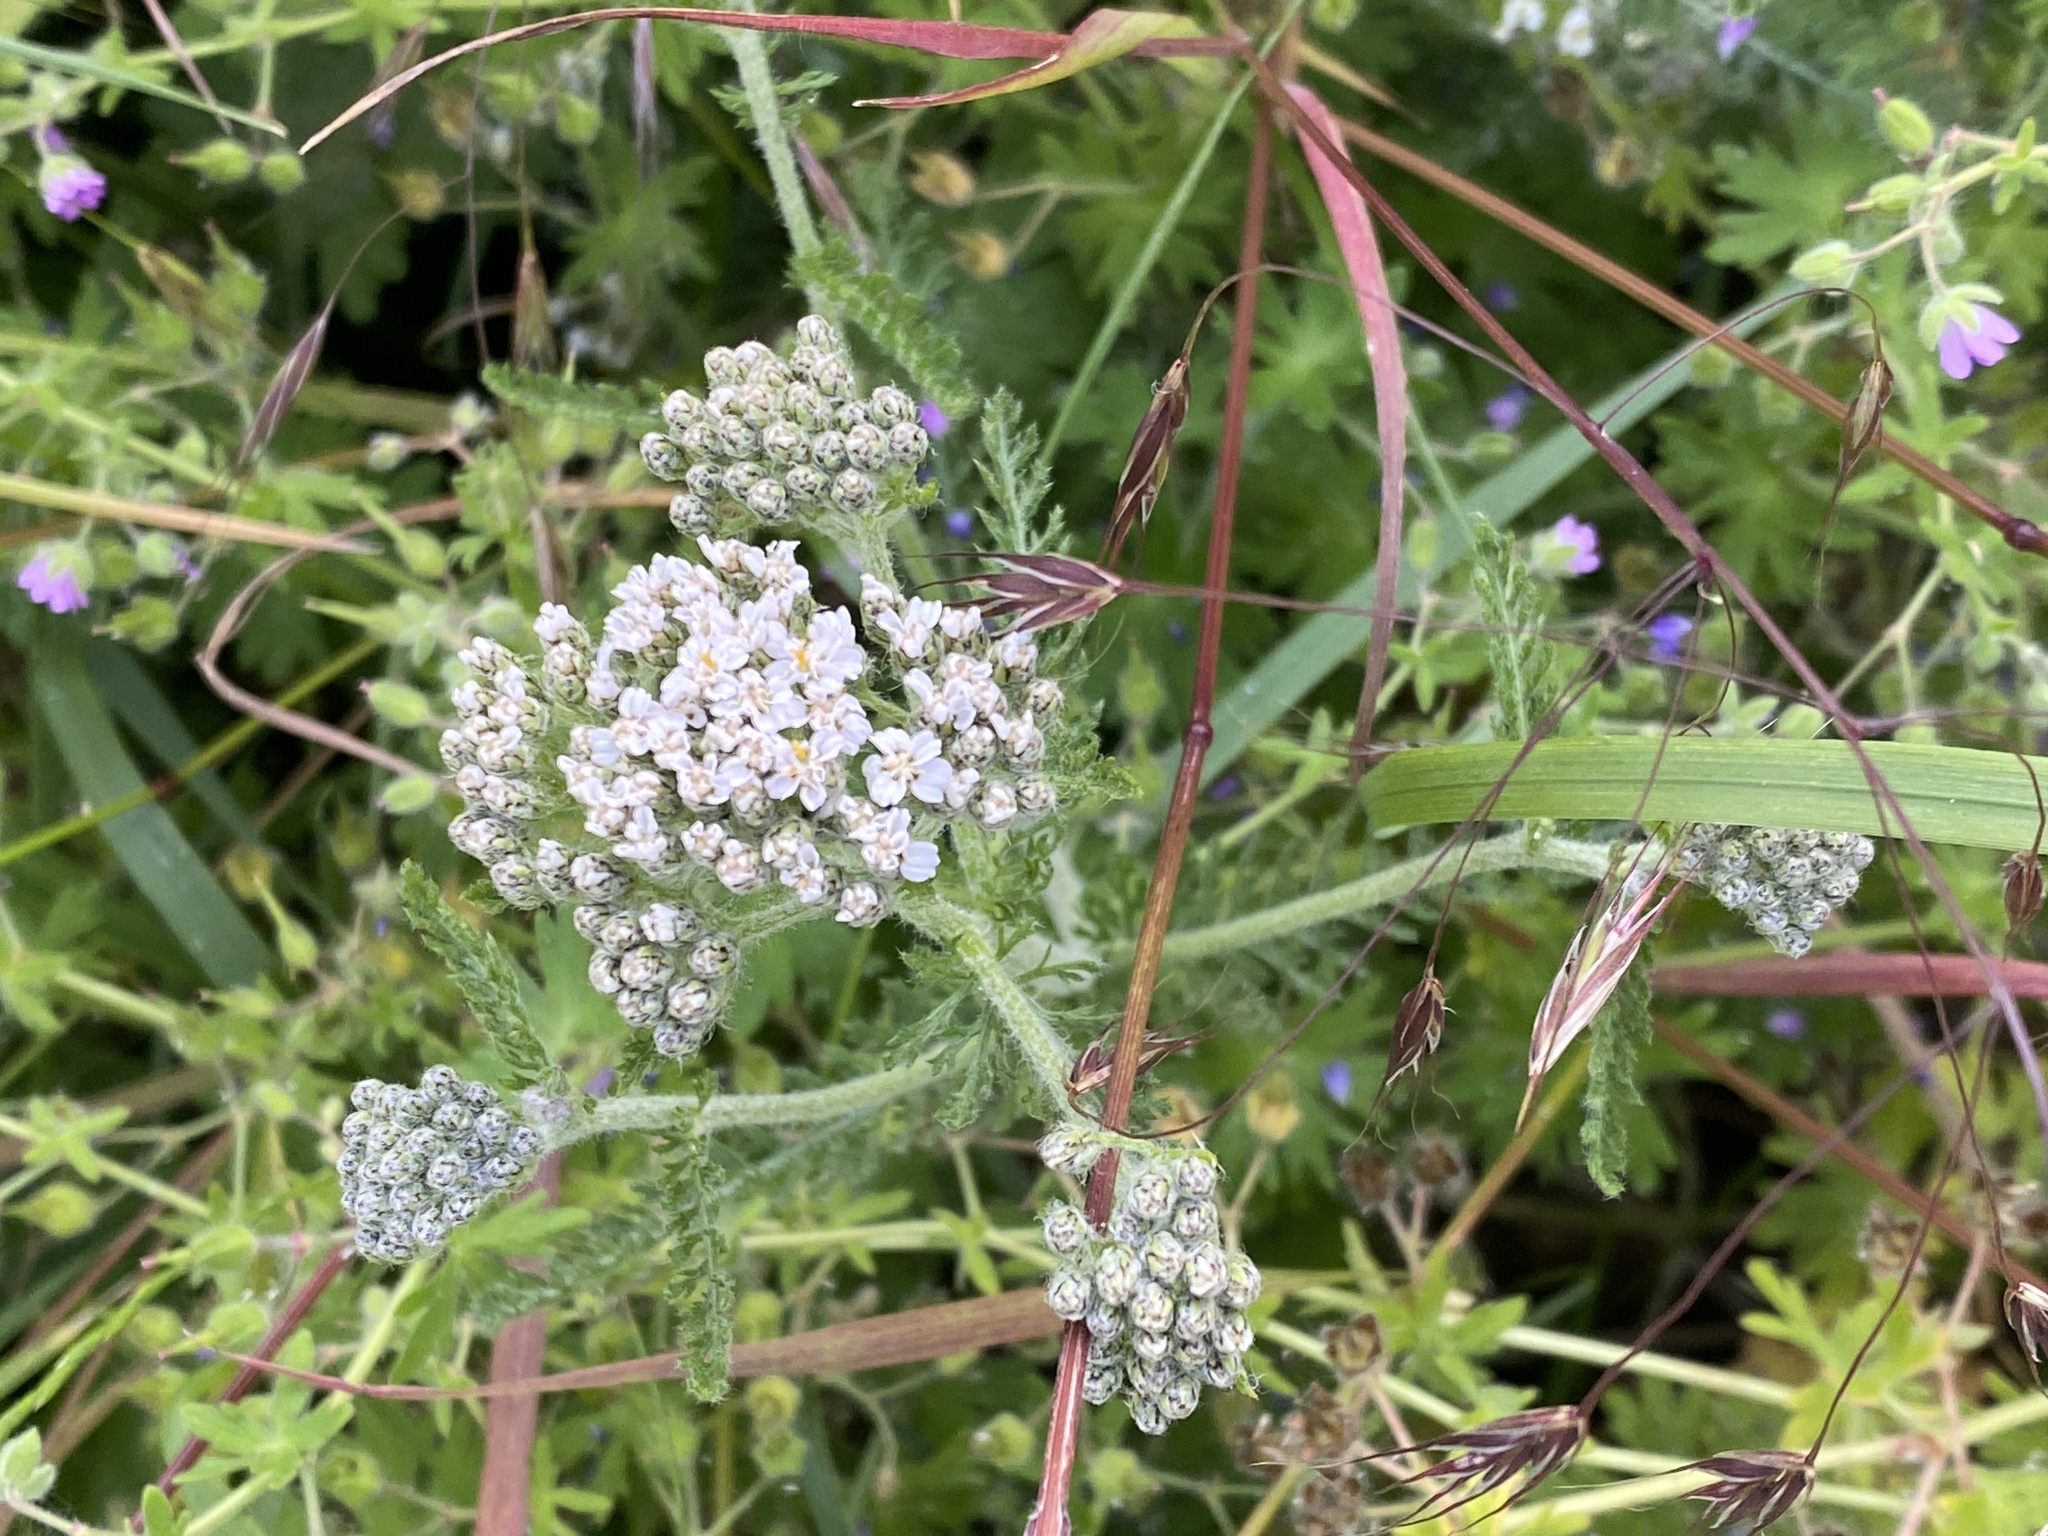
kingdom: Plantae
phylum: Tracheophyta
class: Magnoliopsida
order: Asterales
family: Asteraceae
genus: Achillea
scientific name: Achillea millefolium
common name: Yarrow
